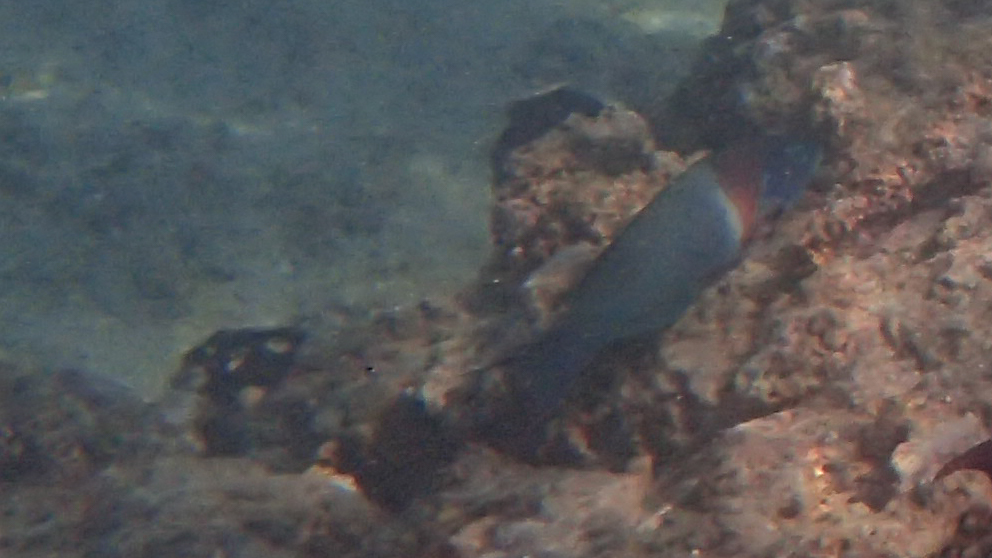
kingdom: Animalia
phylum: Chordata
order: Perciformes
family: Labridae
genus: Thalassoma
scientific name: Thalassoma duperrey
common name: Saddle wrasse
